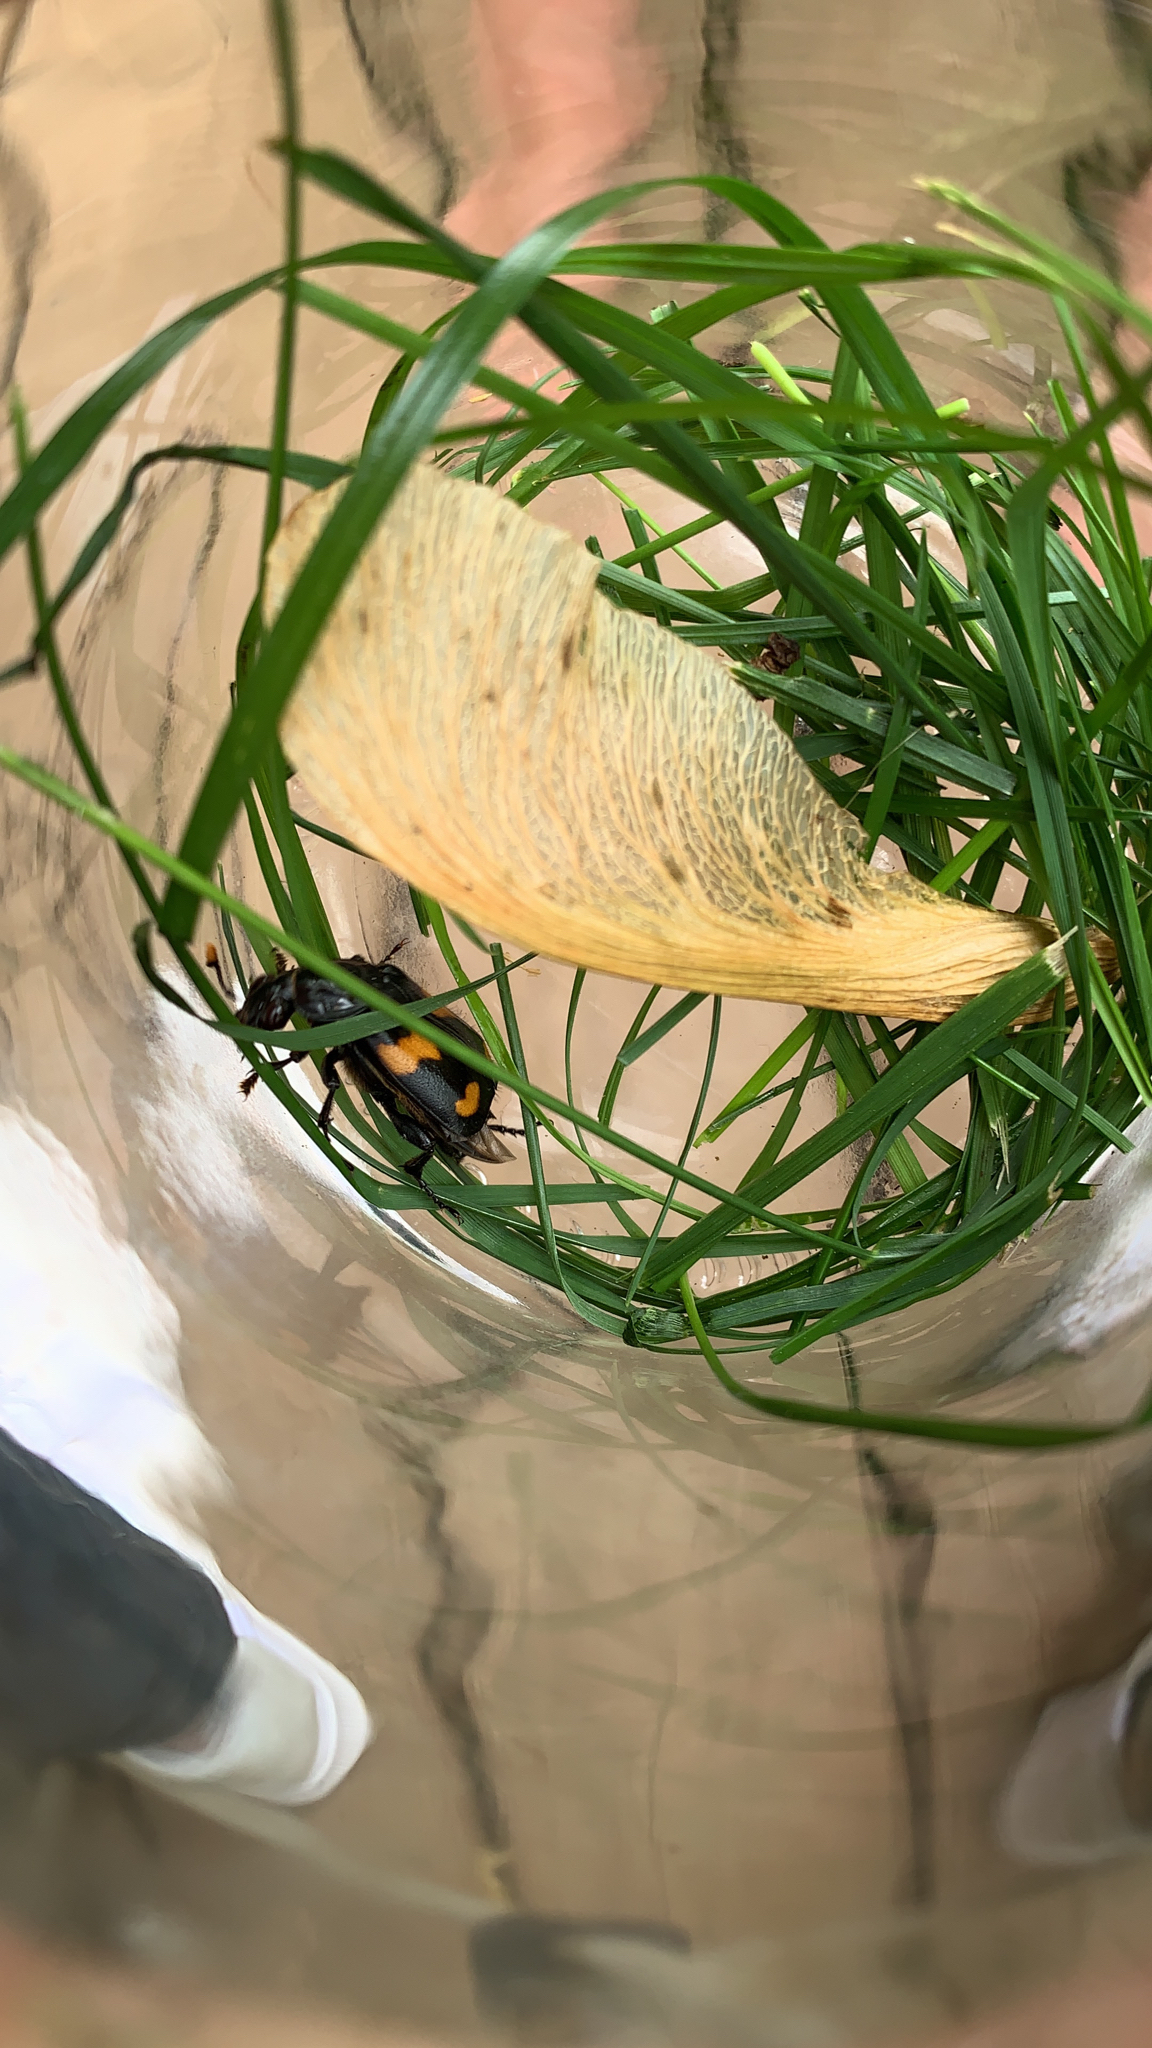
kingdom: Animalia
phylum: Arthropoda
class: Insecta
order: Coleoptera
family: Staphylinidae
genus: Nicrophorus
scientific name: Nicrophorus orbicollis
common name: Roundneck sexton beetle
